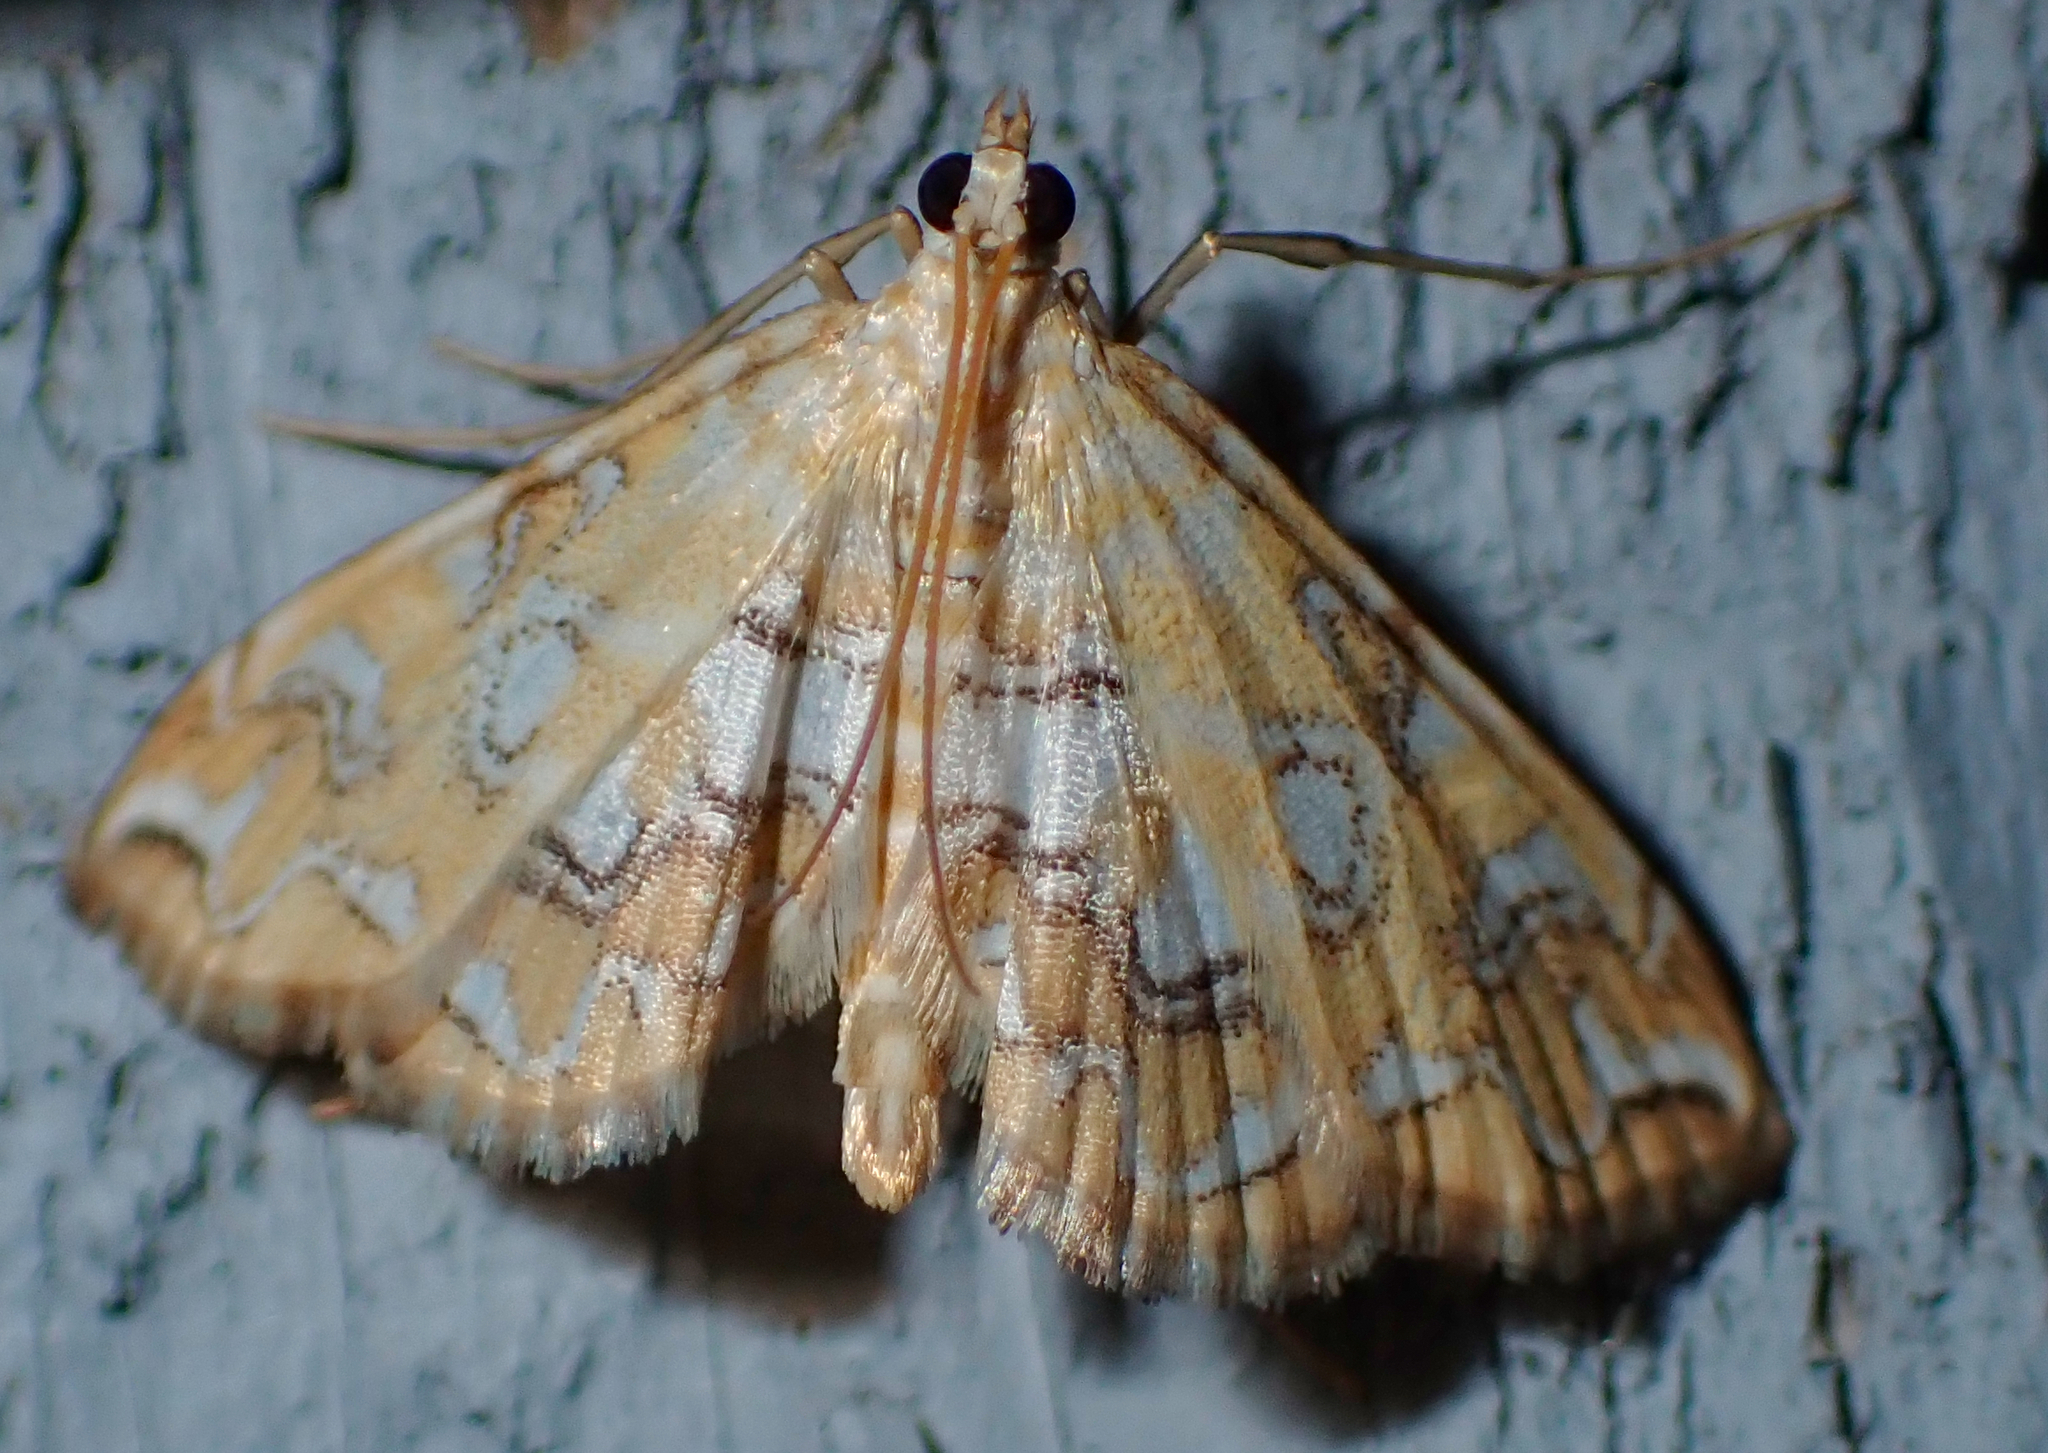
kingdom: Animalia
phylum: Arthropoda
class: Insecta
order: Lepidoptera
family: Crambidae
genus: Elophila
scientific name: Elophila icciusalis
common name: Pondside pyralid moth
